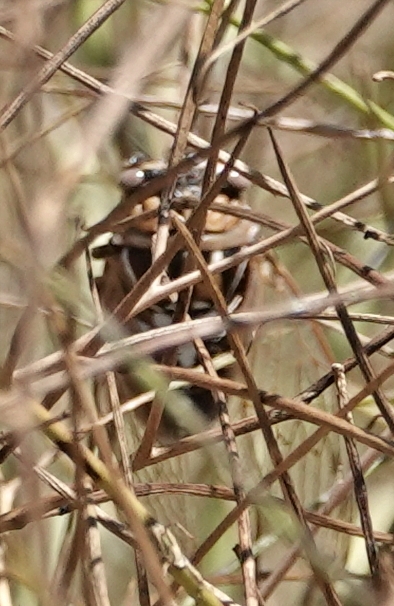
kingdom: Animalia
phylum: Arthropoda
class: Insecta
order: Hemiptera
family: Cicadidae
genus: Megatibicen
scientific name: Megatibicen dorsatus
